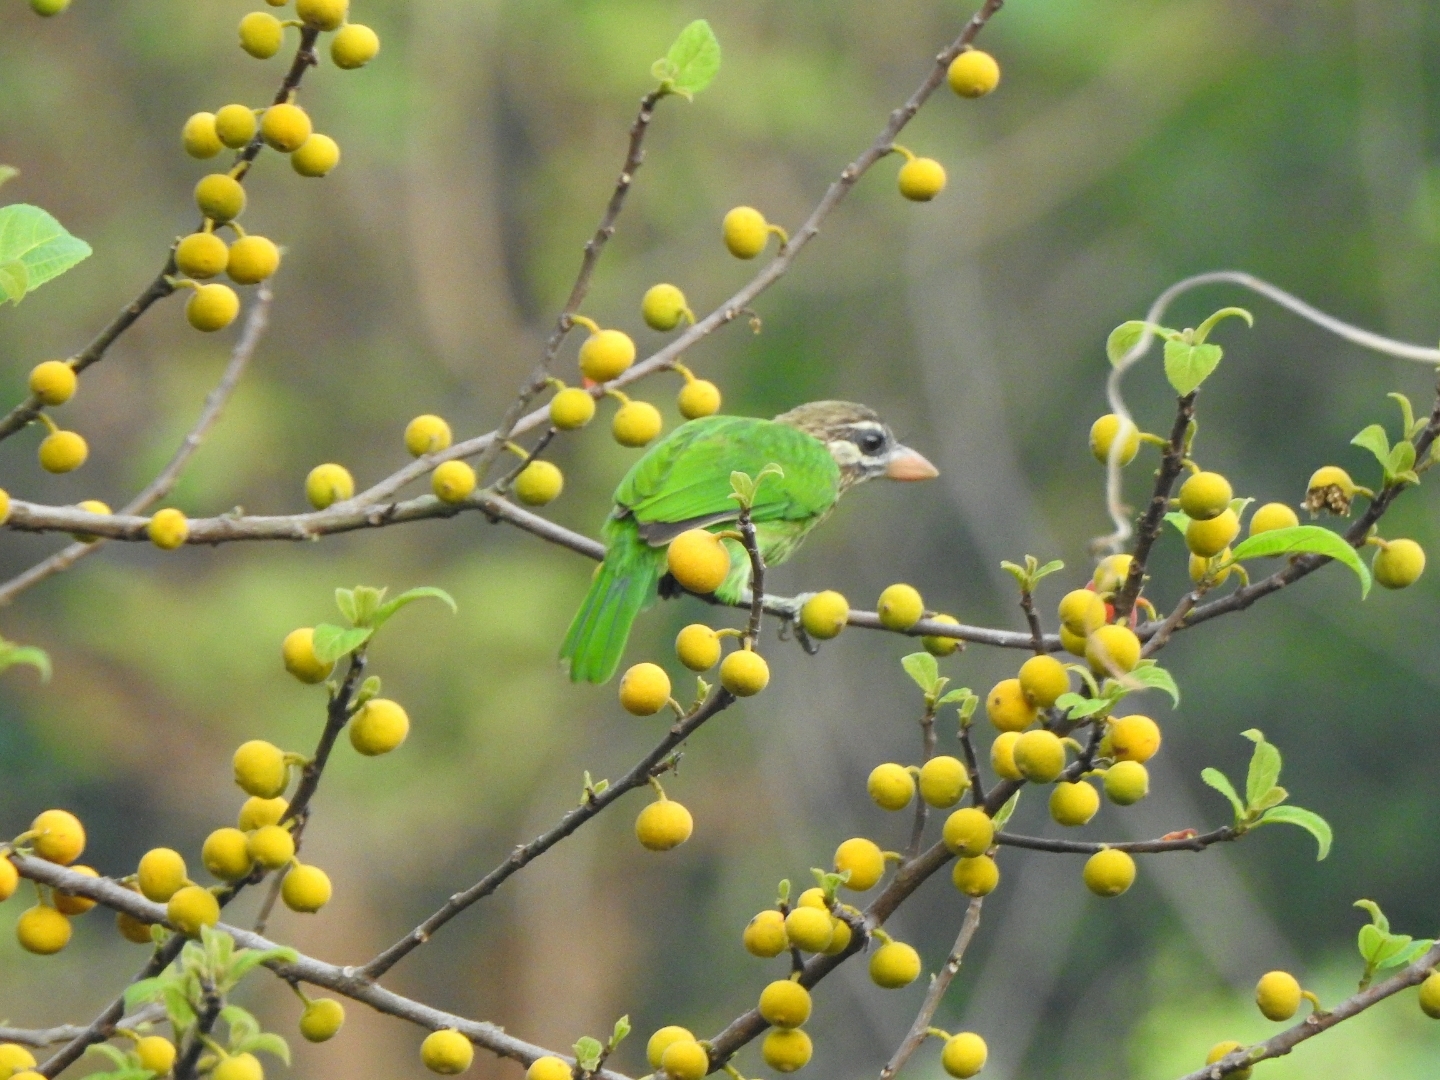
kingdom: Animalia
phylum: Chordata
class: Aves
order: Piciformes
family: Megalaimidae
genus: Psilopogon
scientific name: Psilopogon viridis
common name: White-cheeked barbet
